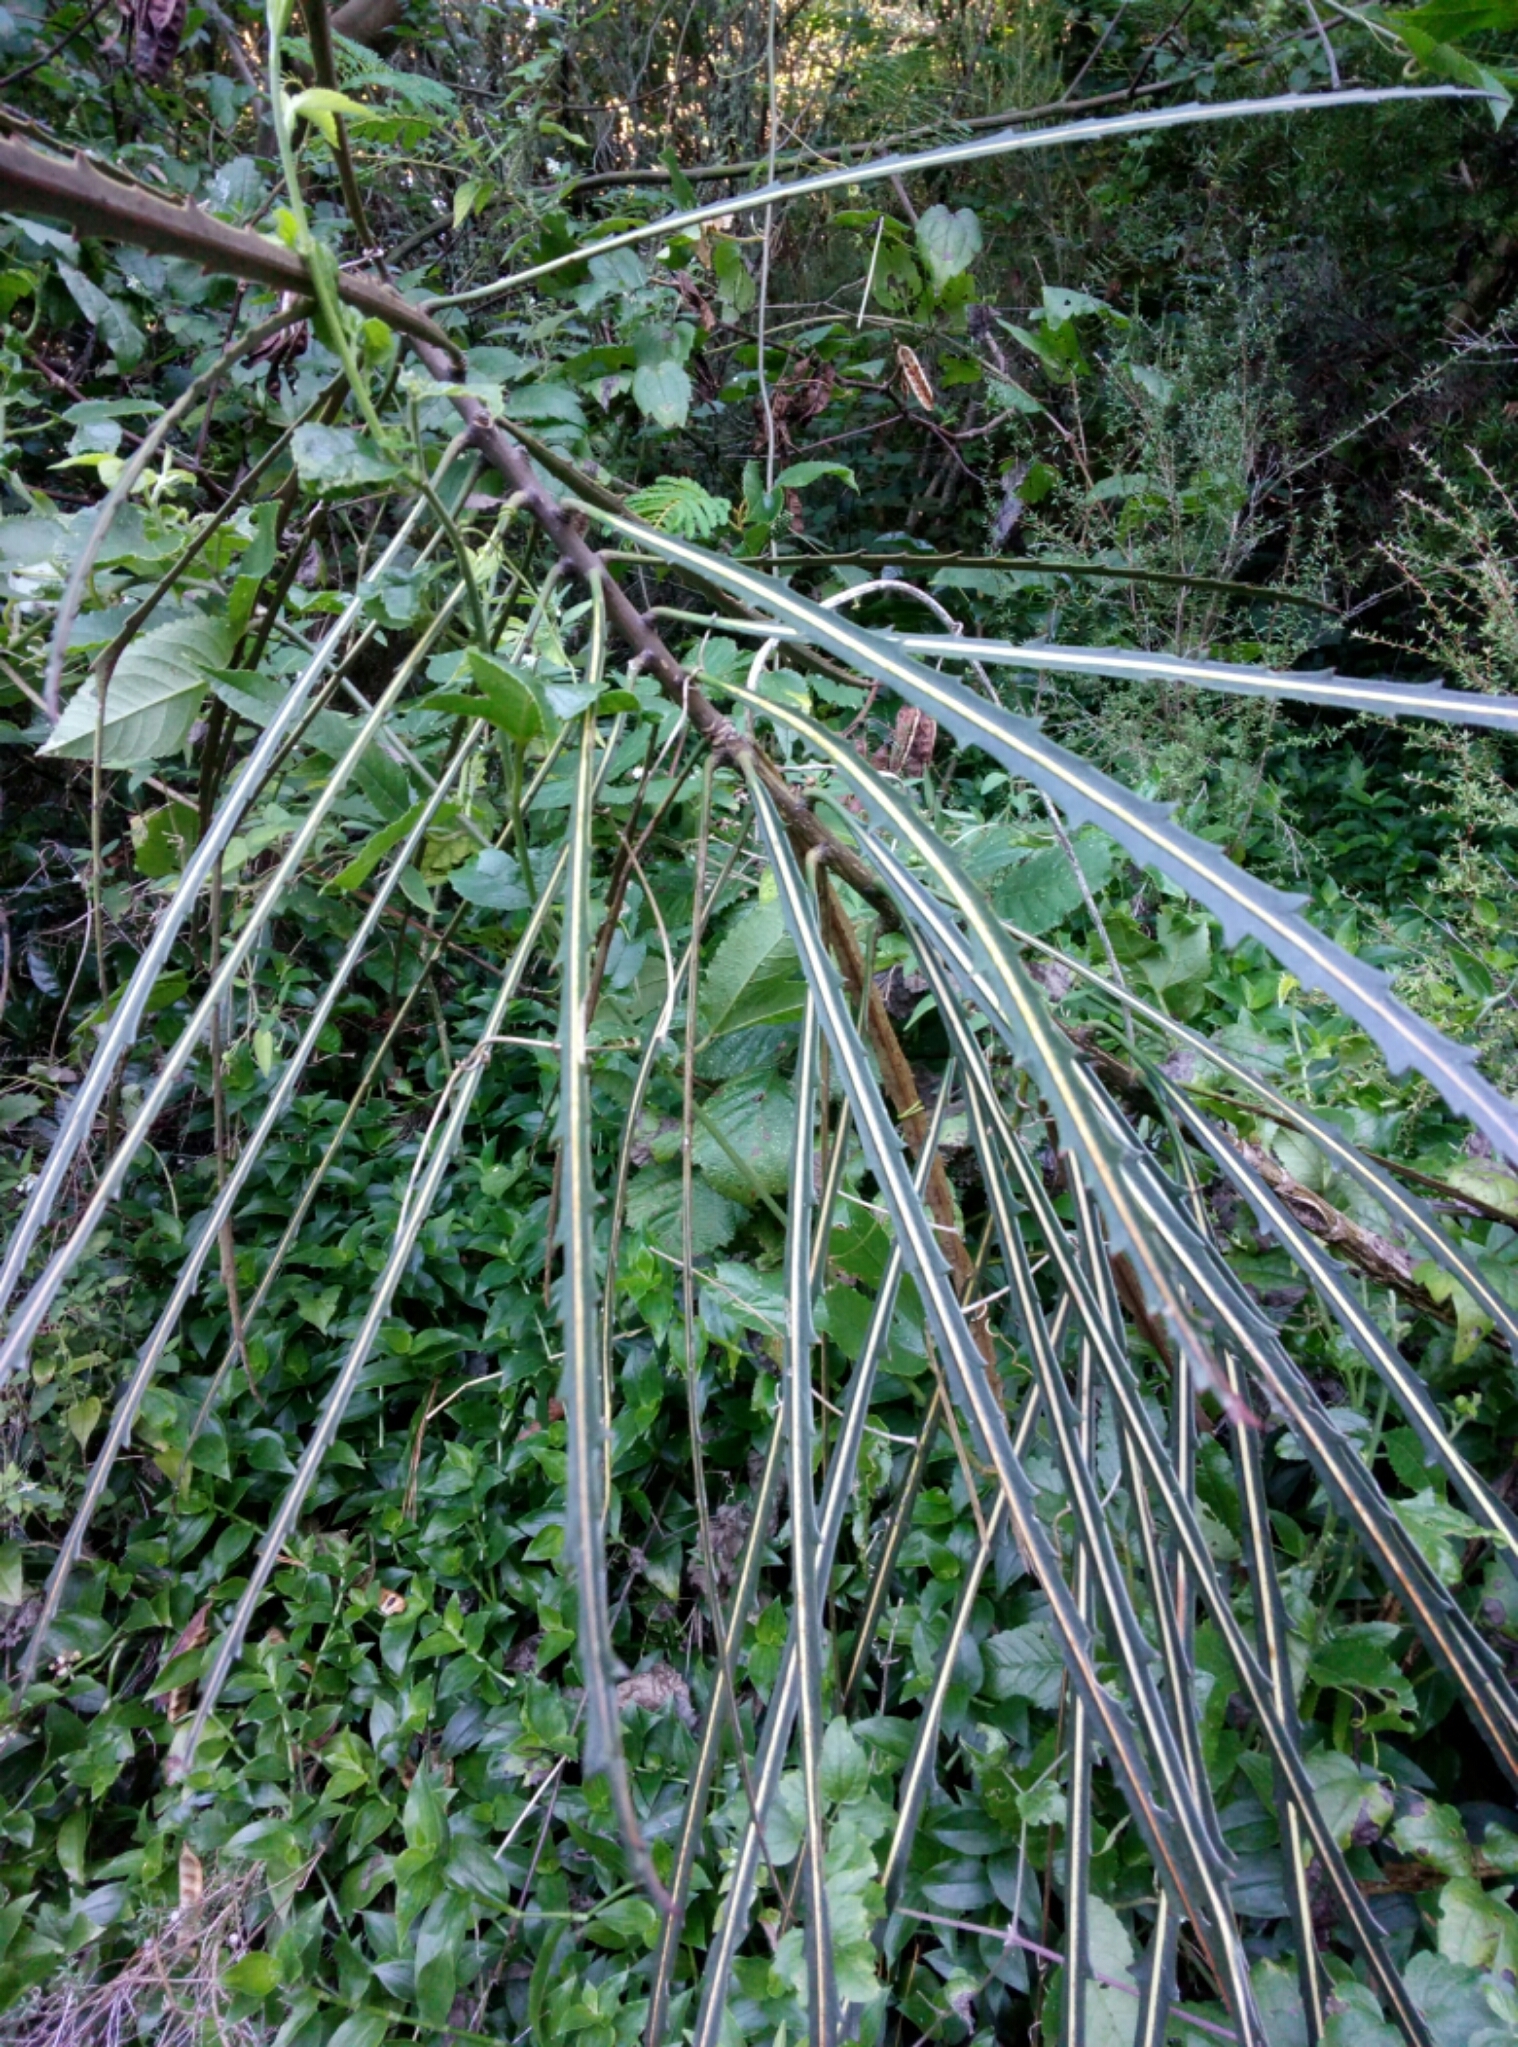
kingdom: Plantae
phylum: Tracheophyta
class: Magnoliopsida
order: Apiales
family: Araliaceae
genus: Pseudopanax
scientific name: Pseudopanax crassifolius
